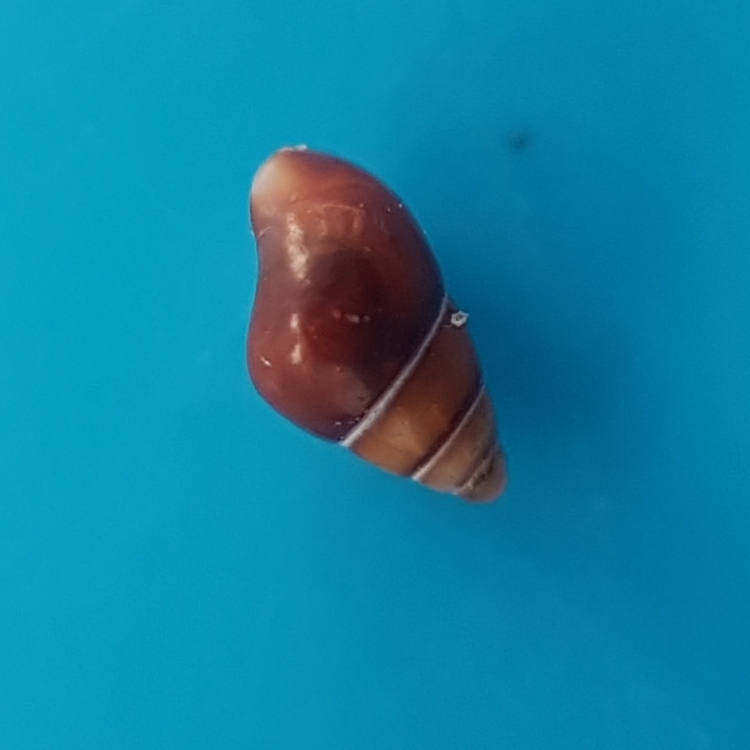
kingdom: Animalia
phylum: Mollusca
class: Gastropoda
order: Littorinimorpha
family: Barleeiidae
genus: Barleeia
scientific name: Barleeia unifasciata
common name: Red spire snail
